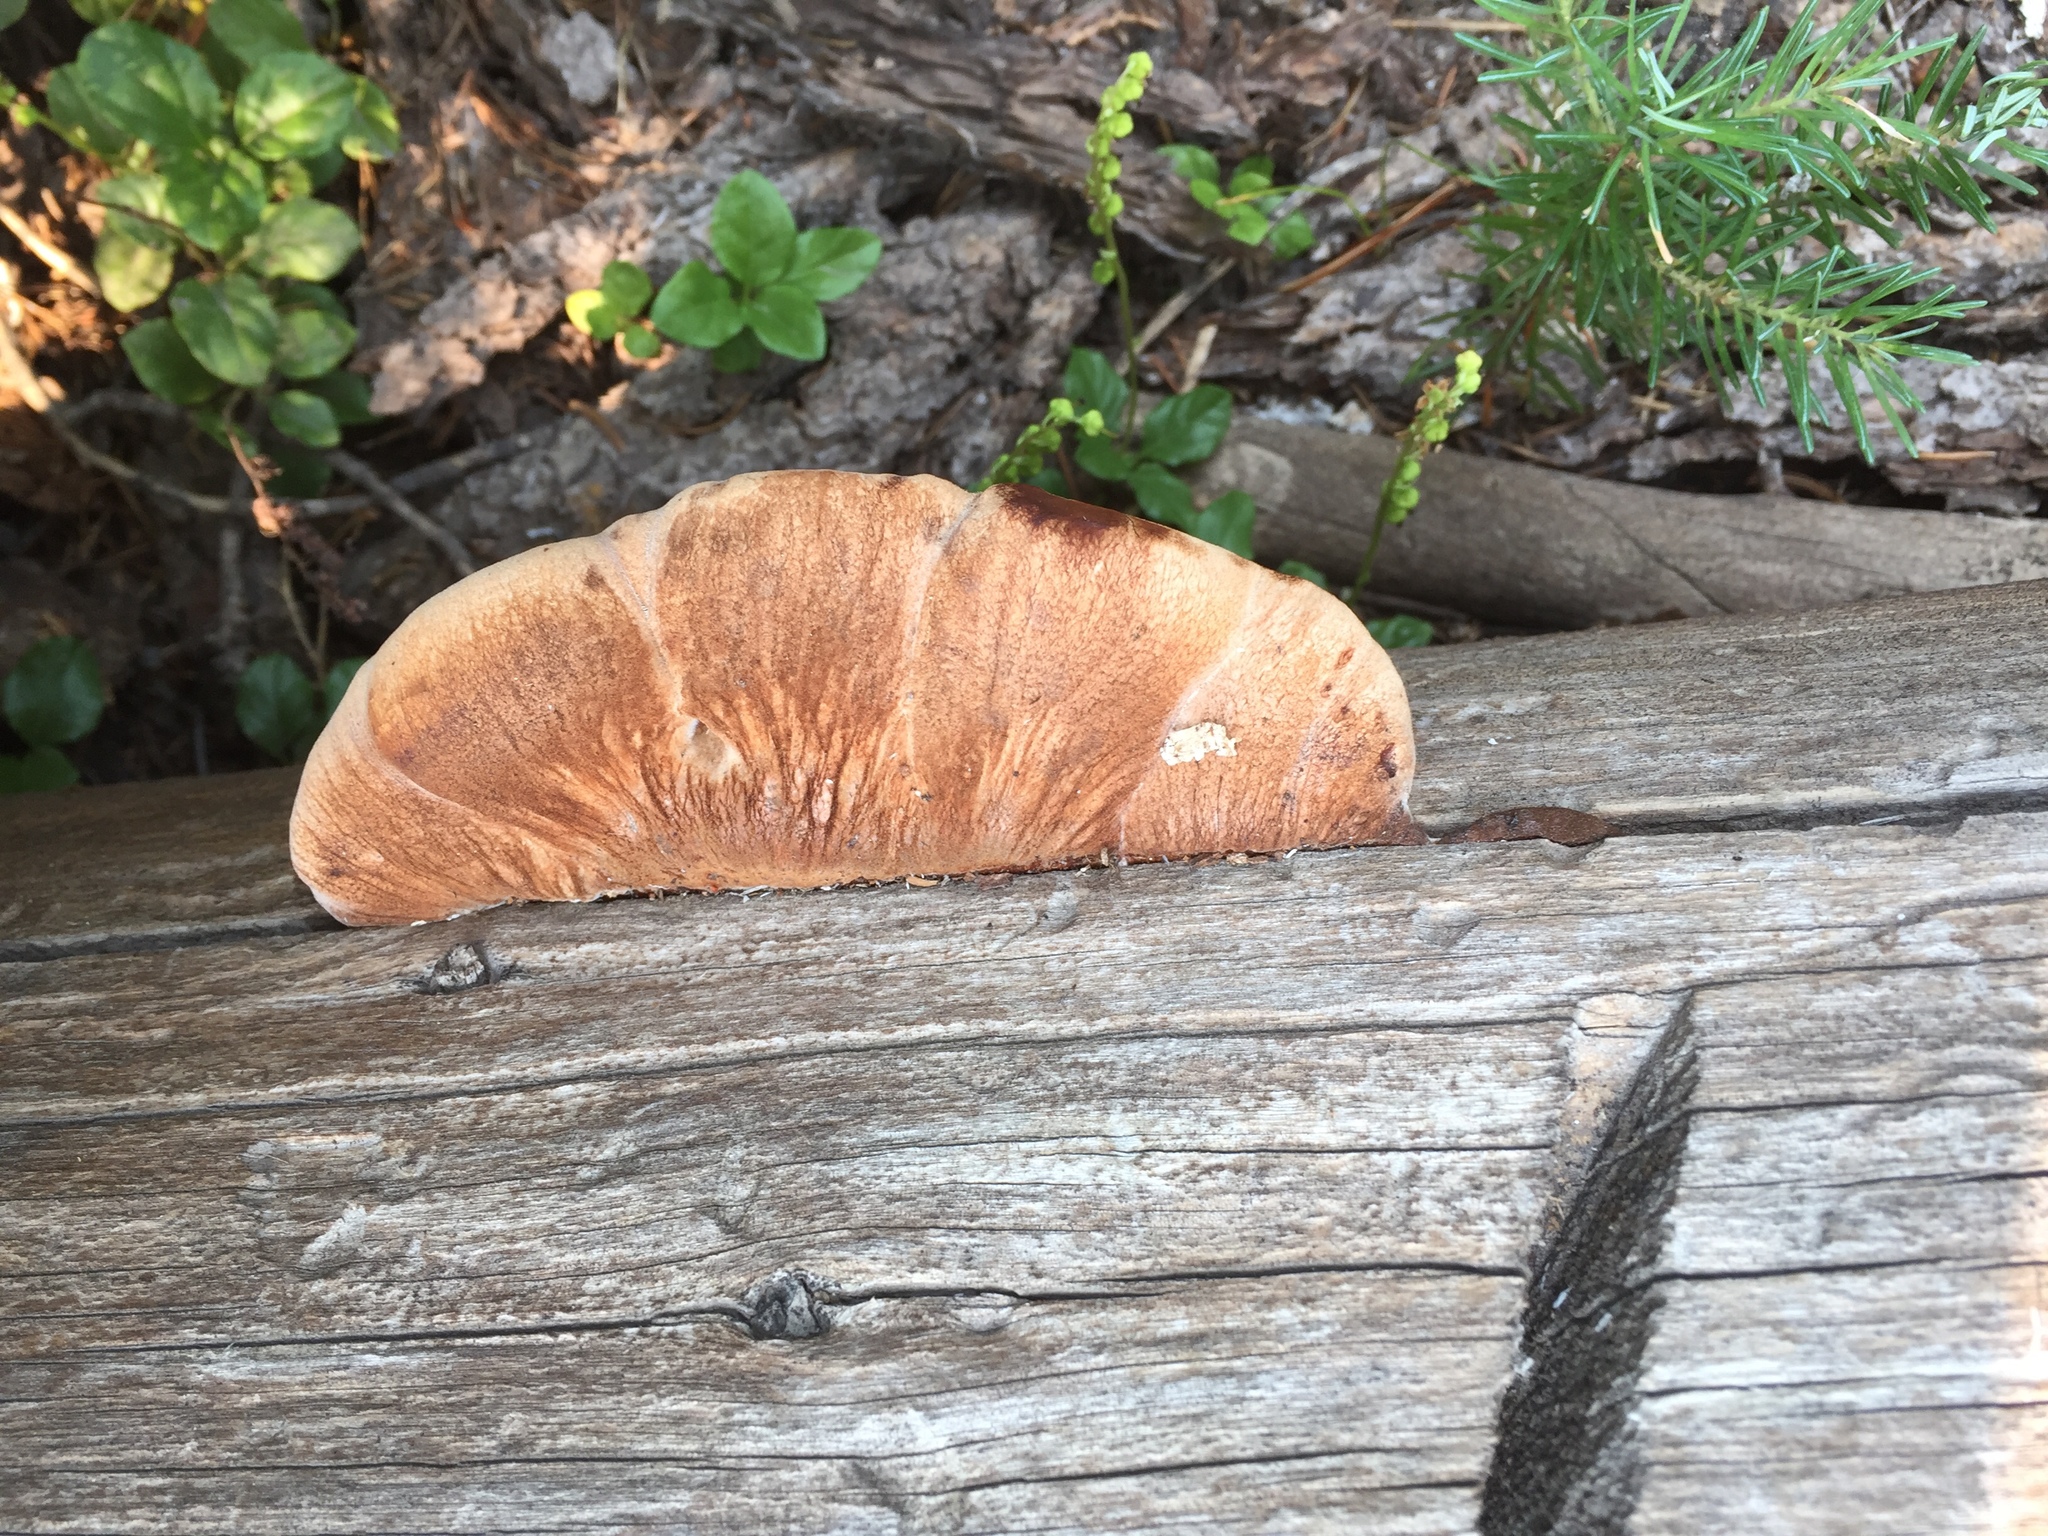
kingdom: Fungi
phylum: Basidiomycota
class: Agaricomycetes
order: Polyporales
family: Dacryobolaceae
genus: Amylocystis
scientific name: Amylocystis lapponica
